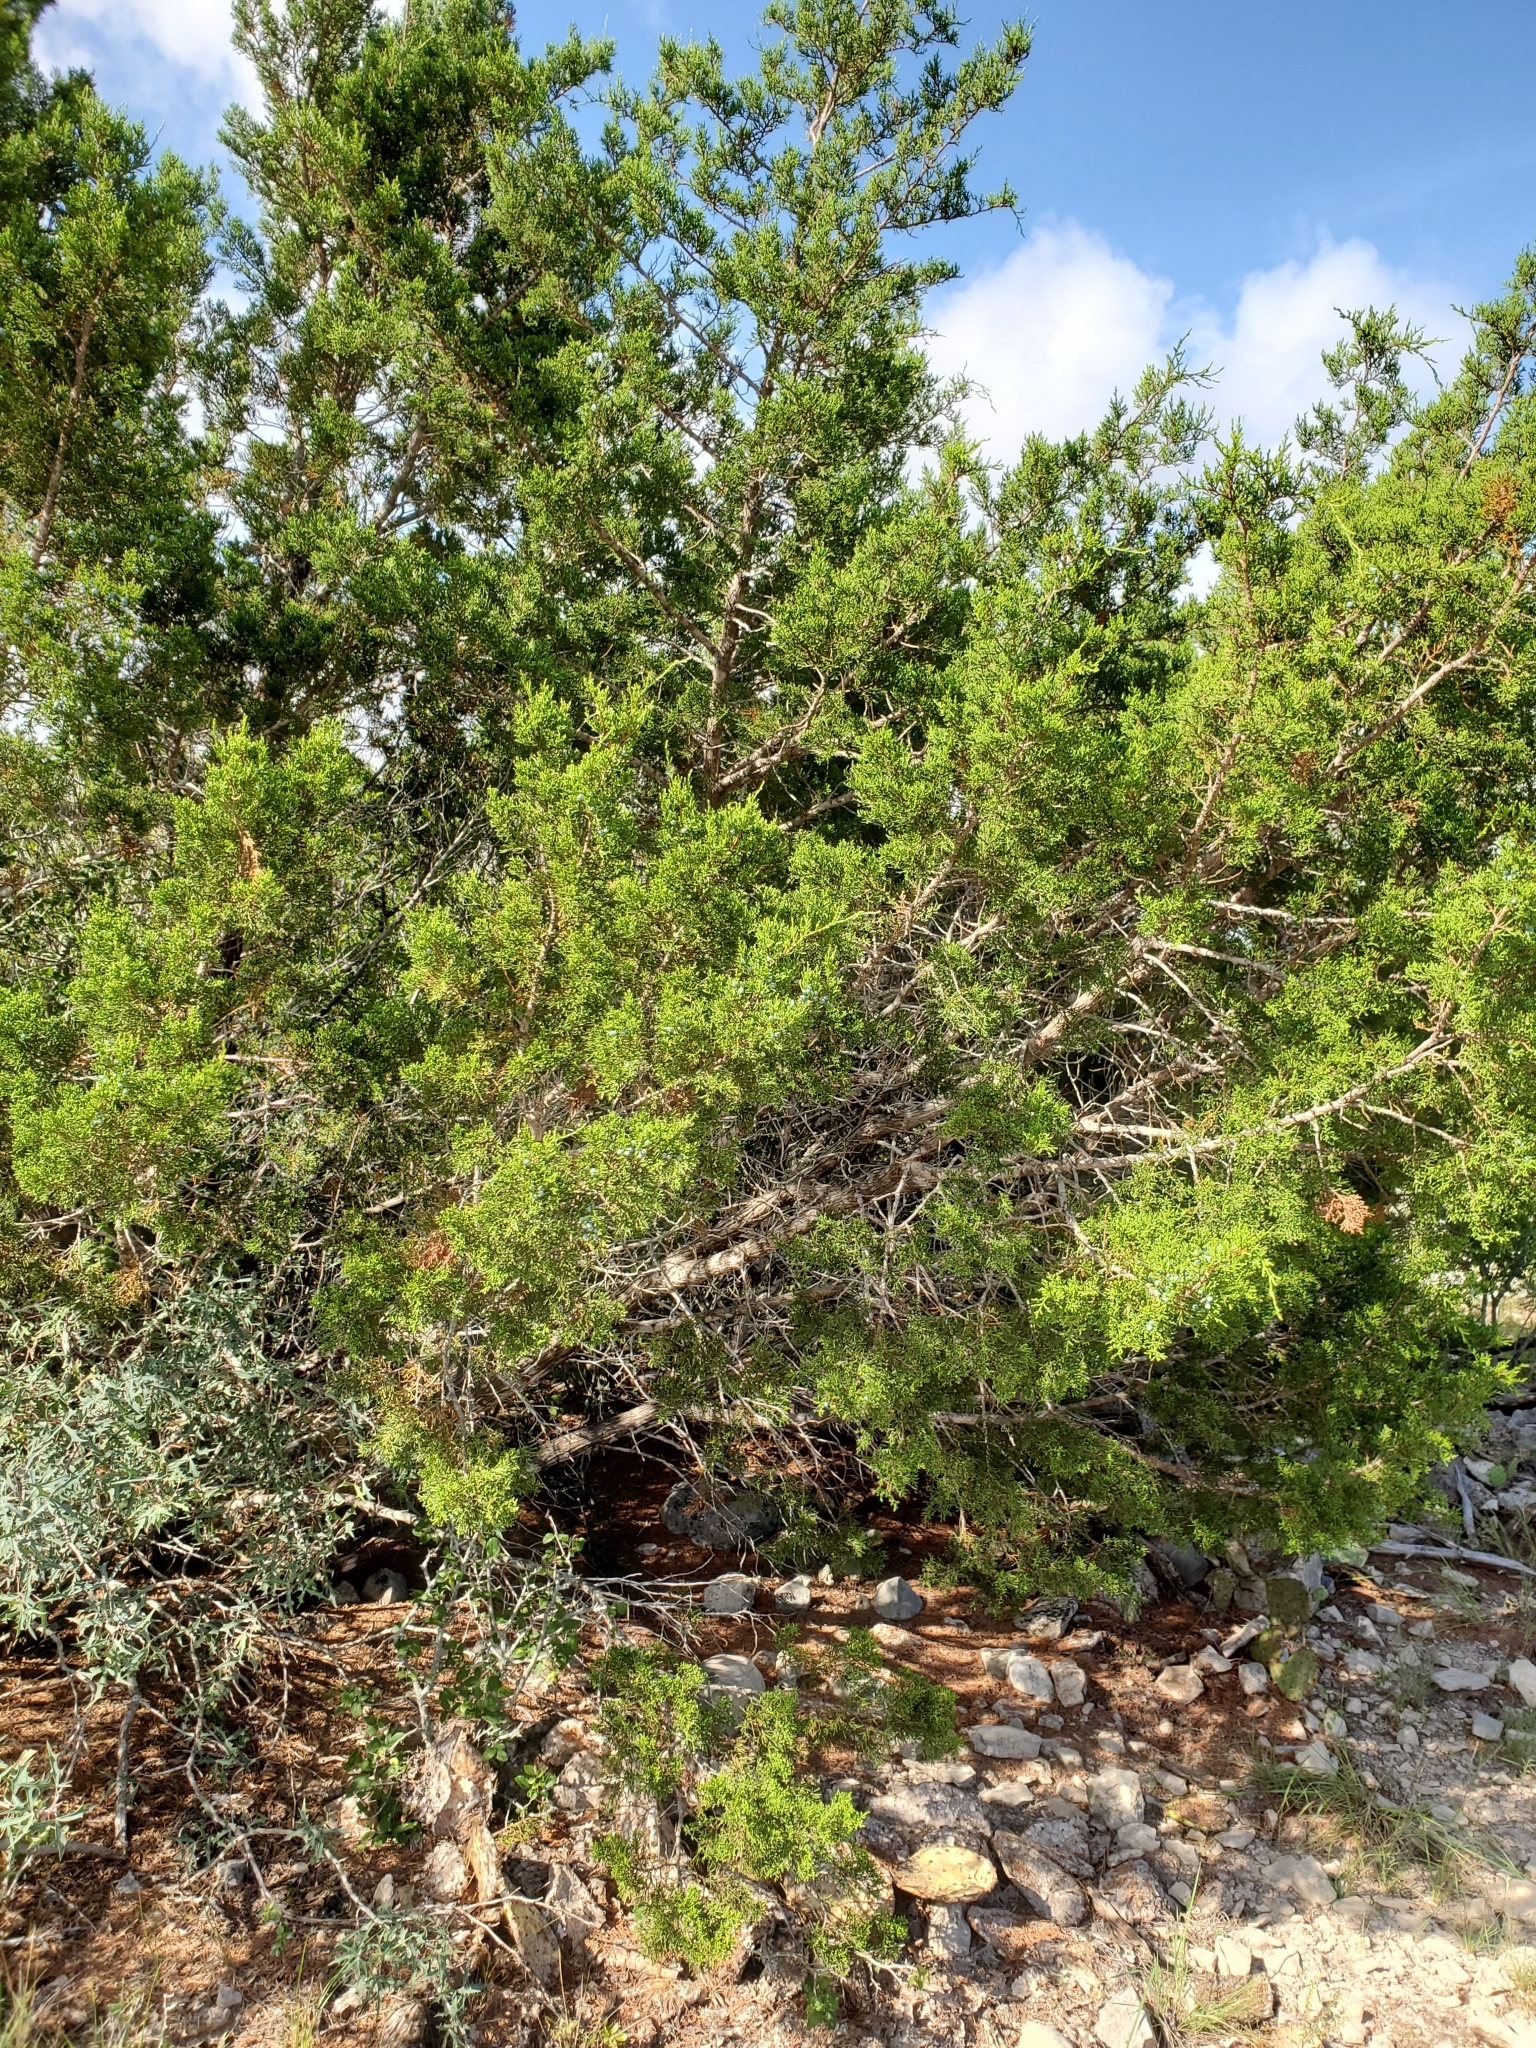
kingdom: Plantae
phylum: Tracheophyta
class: Pinopsida
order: Pinales
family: Cupressaceae
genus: Juniperus
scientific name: Juniperus ashei
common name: Mexican juniper
